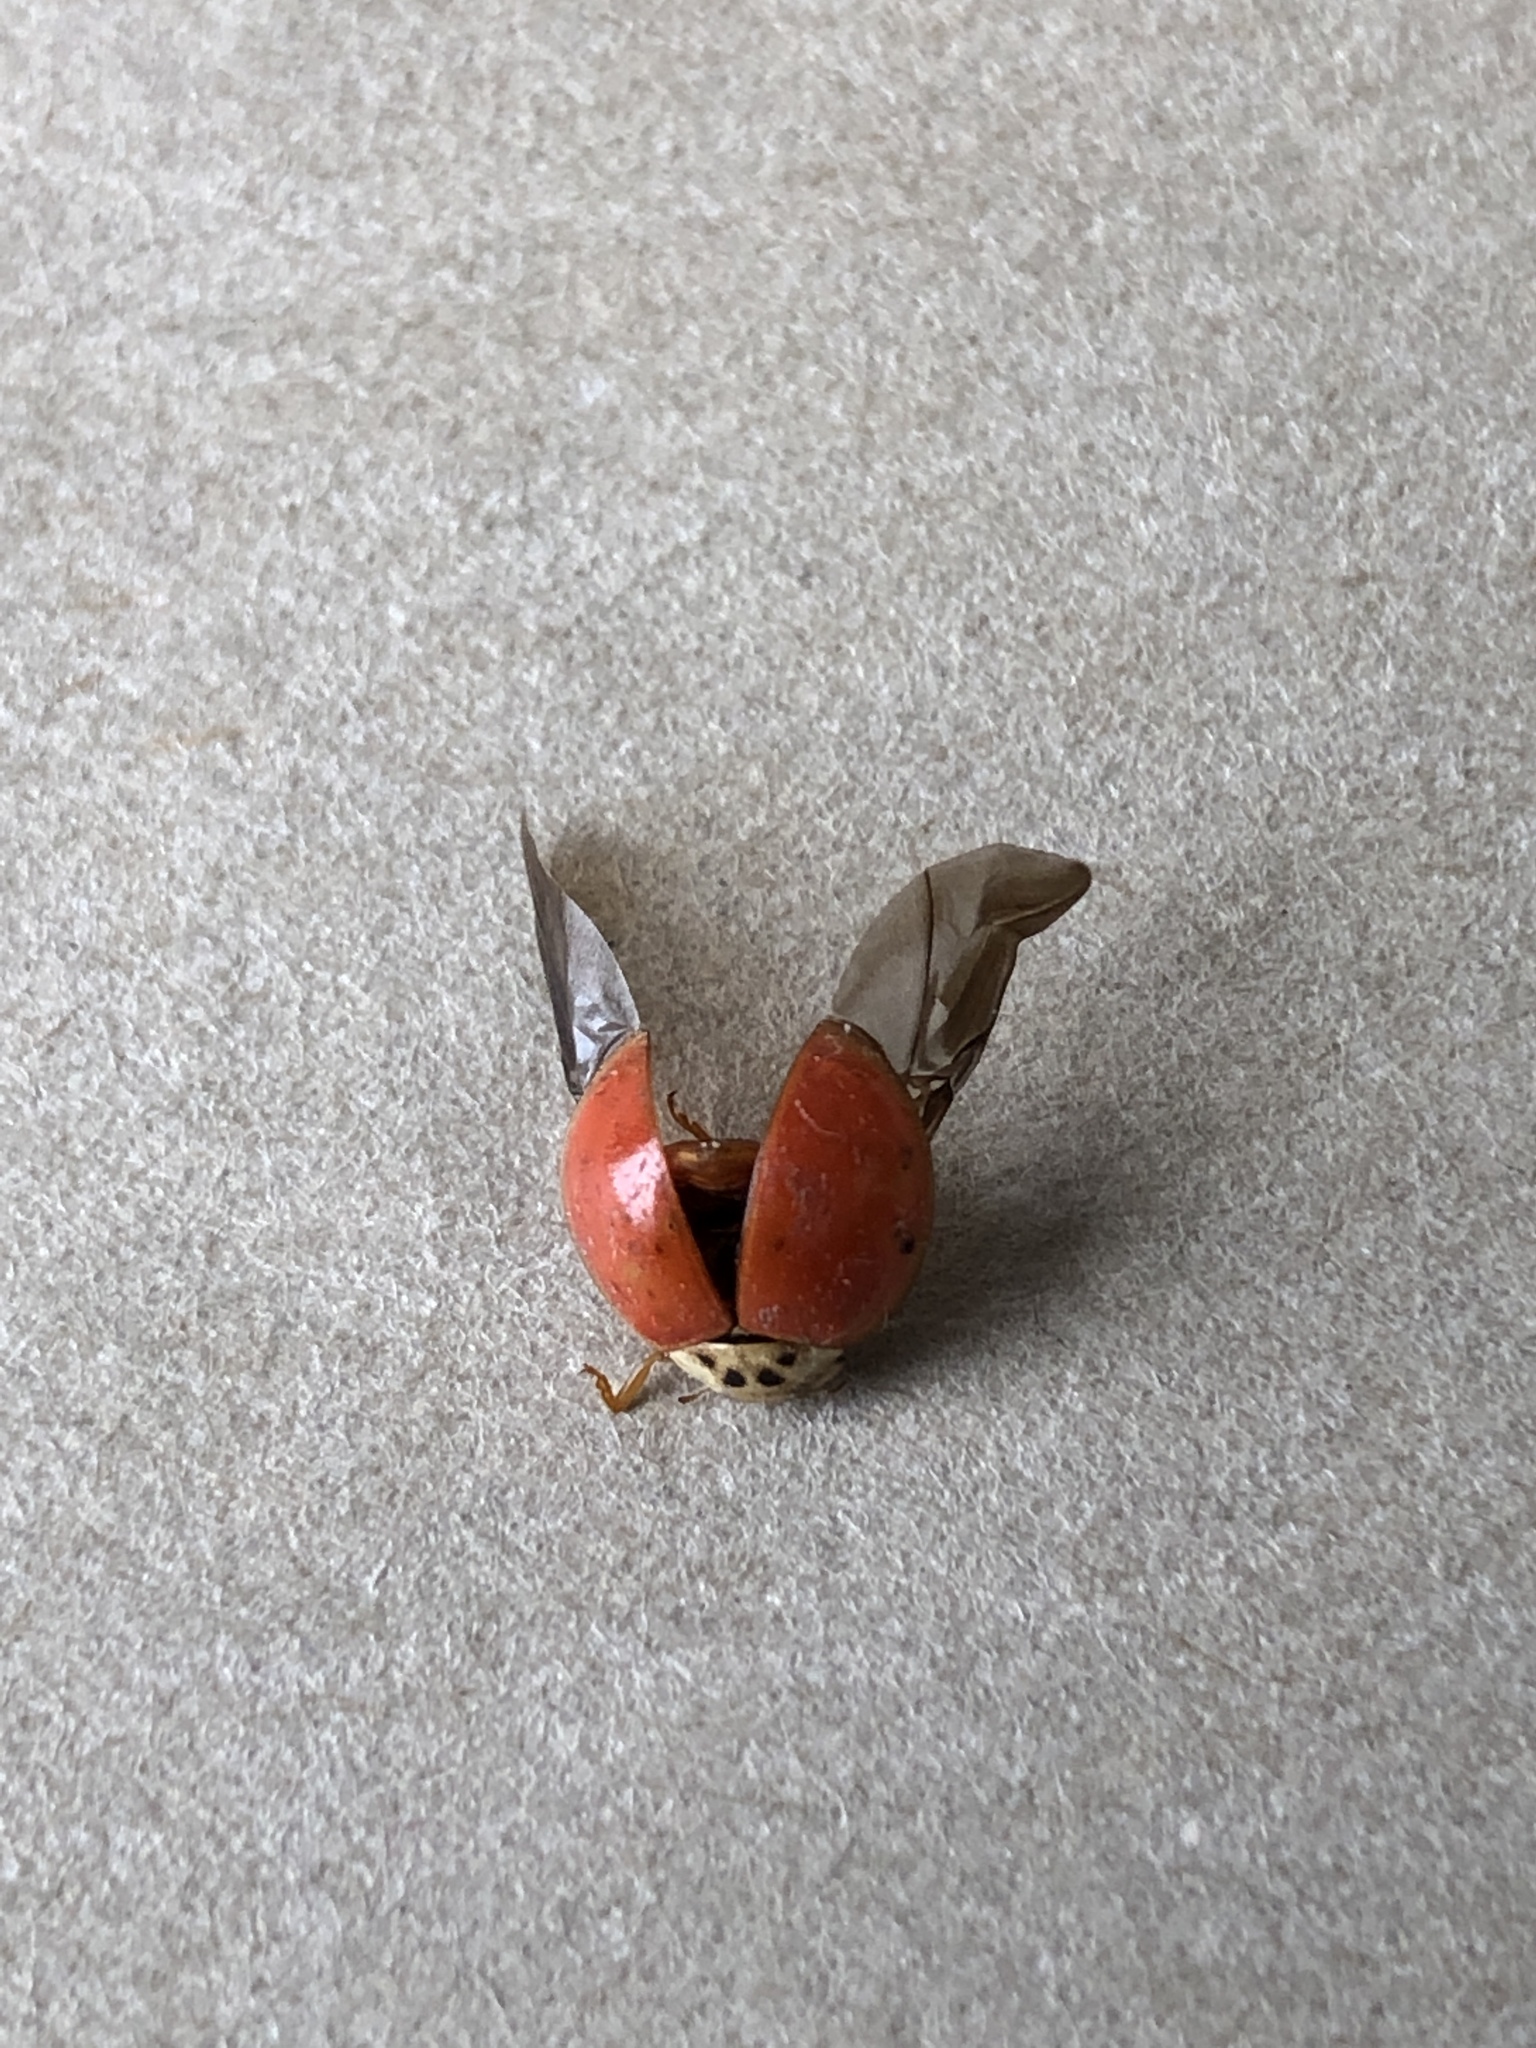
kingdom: Animalia
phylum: Arthropoda
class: Insecta
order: Coleoptera
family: Coccinellidae
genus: Harmonia
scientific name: Harmonia axyridis
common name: Harlequin ladybird
